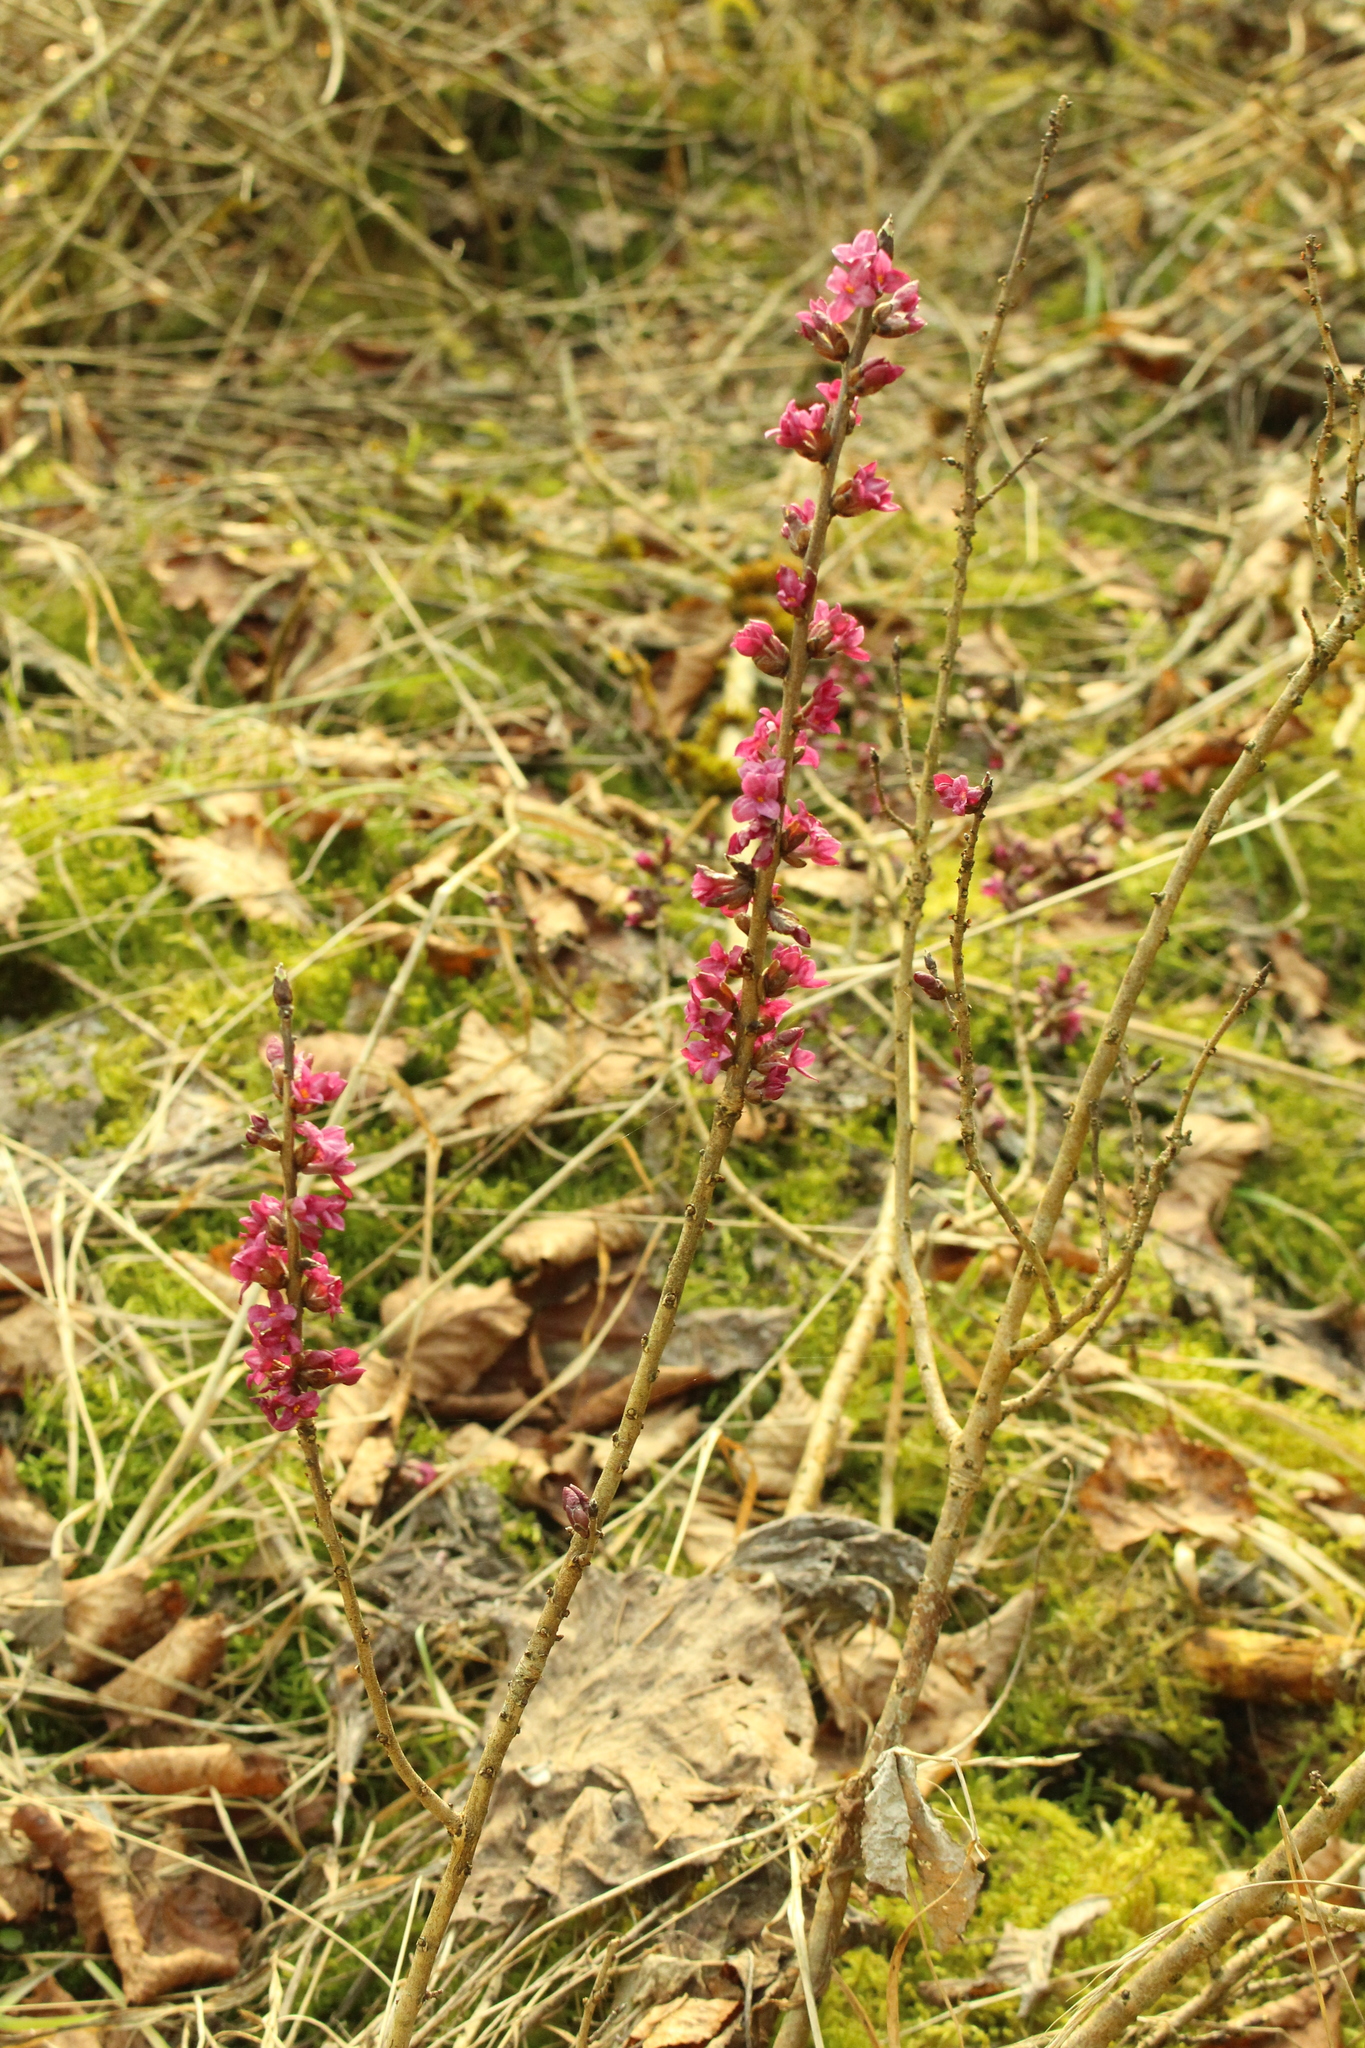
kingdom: Plantae
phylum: Tracheophyta
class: Magnoliopsida
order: Malvales
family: Thymelaeaceae
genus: Daphne
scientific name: Daphne mezereum
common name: Mezereon
